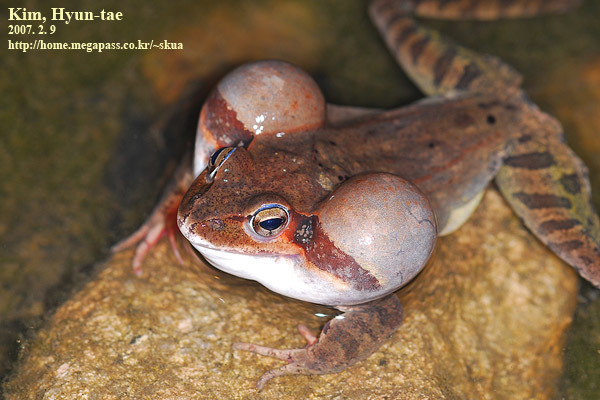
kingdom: Animalia
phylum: Chordata
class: Amphibia
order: Anura
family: Ranidae
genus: Rana
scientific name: Rana uenoi
